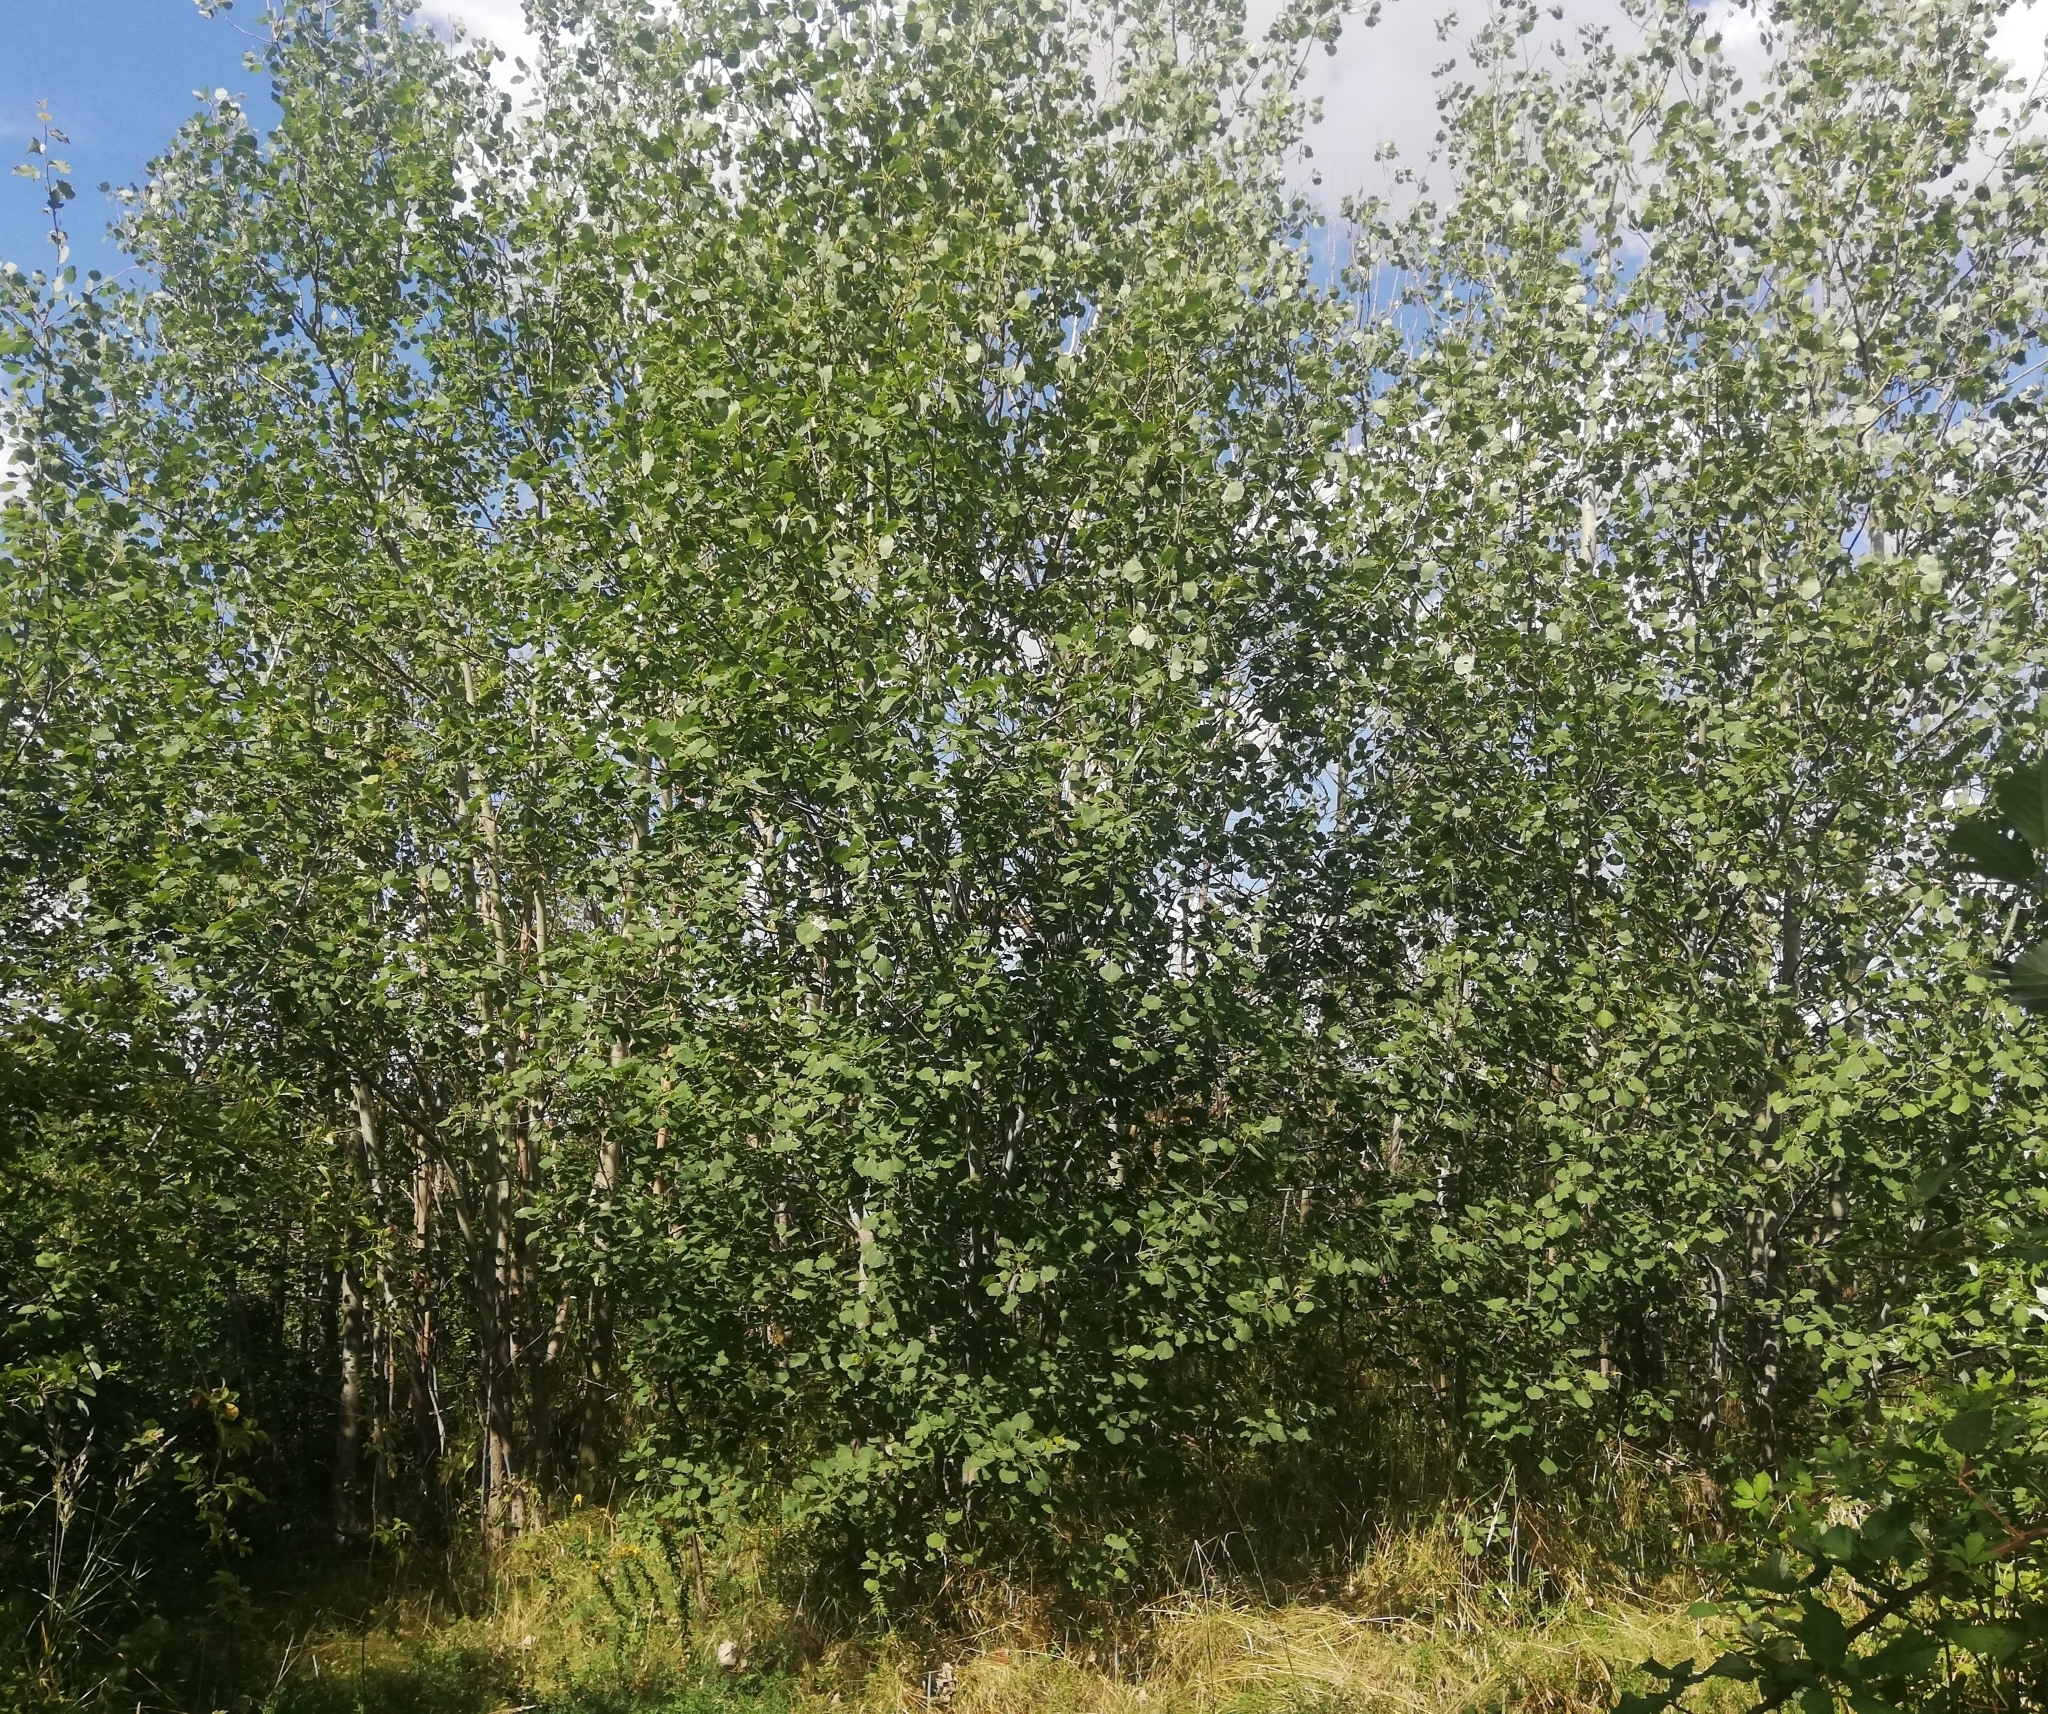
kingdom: Plantae
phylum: Tracheophyta
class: Magnoliopsida
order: Malpighiales
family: Salicaceae
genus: Populus
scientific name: Populus tremula
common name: European aspen
